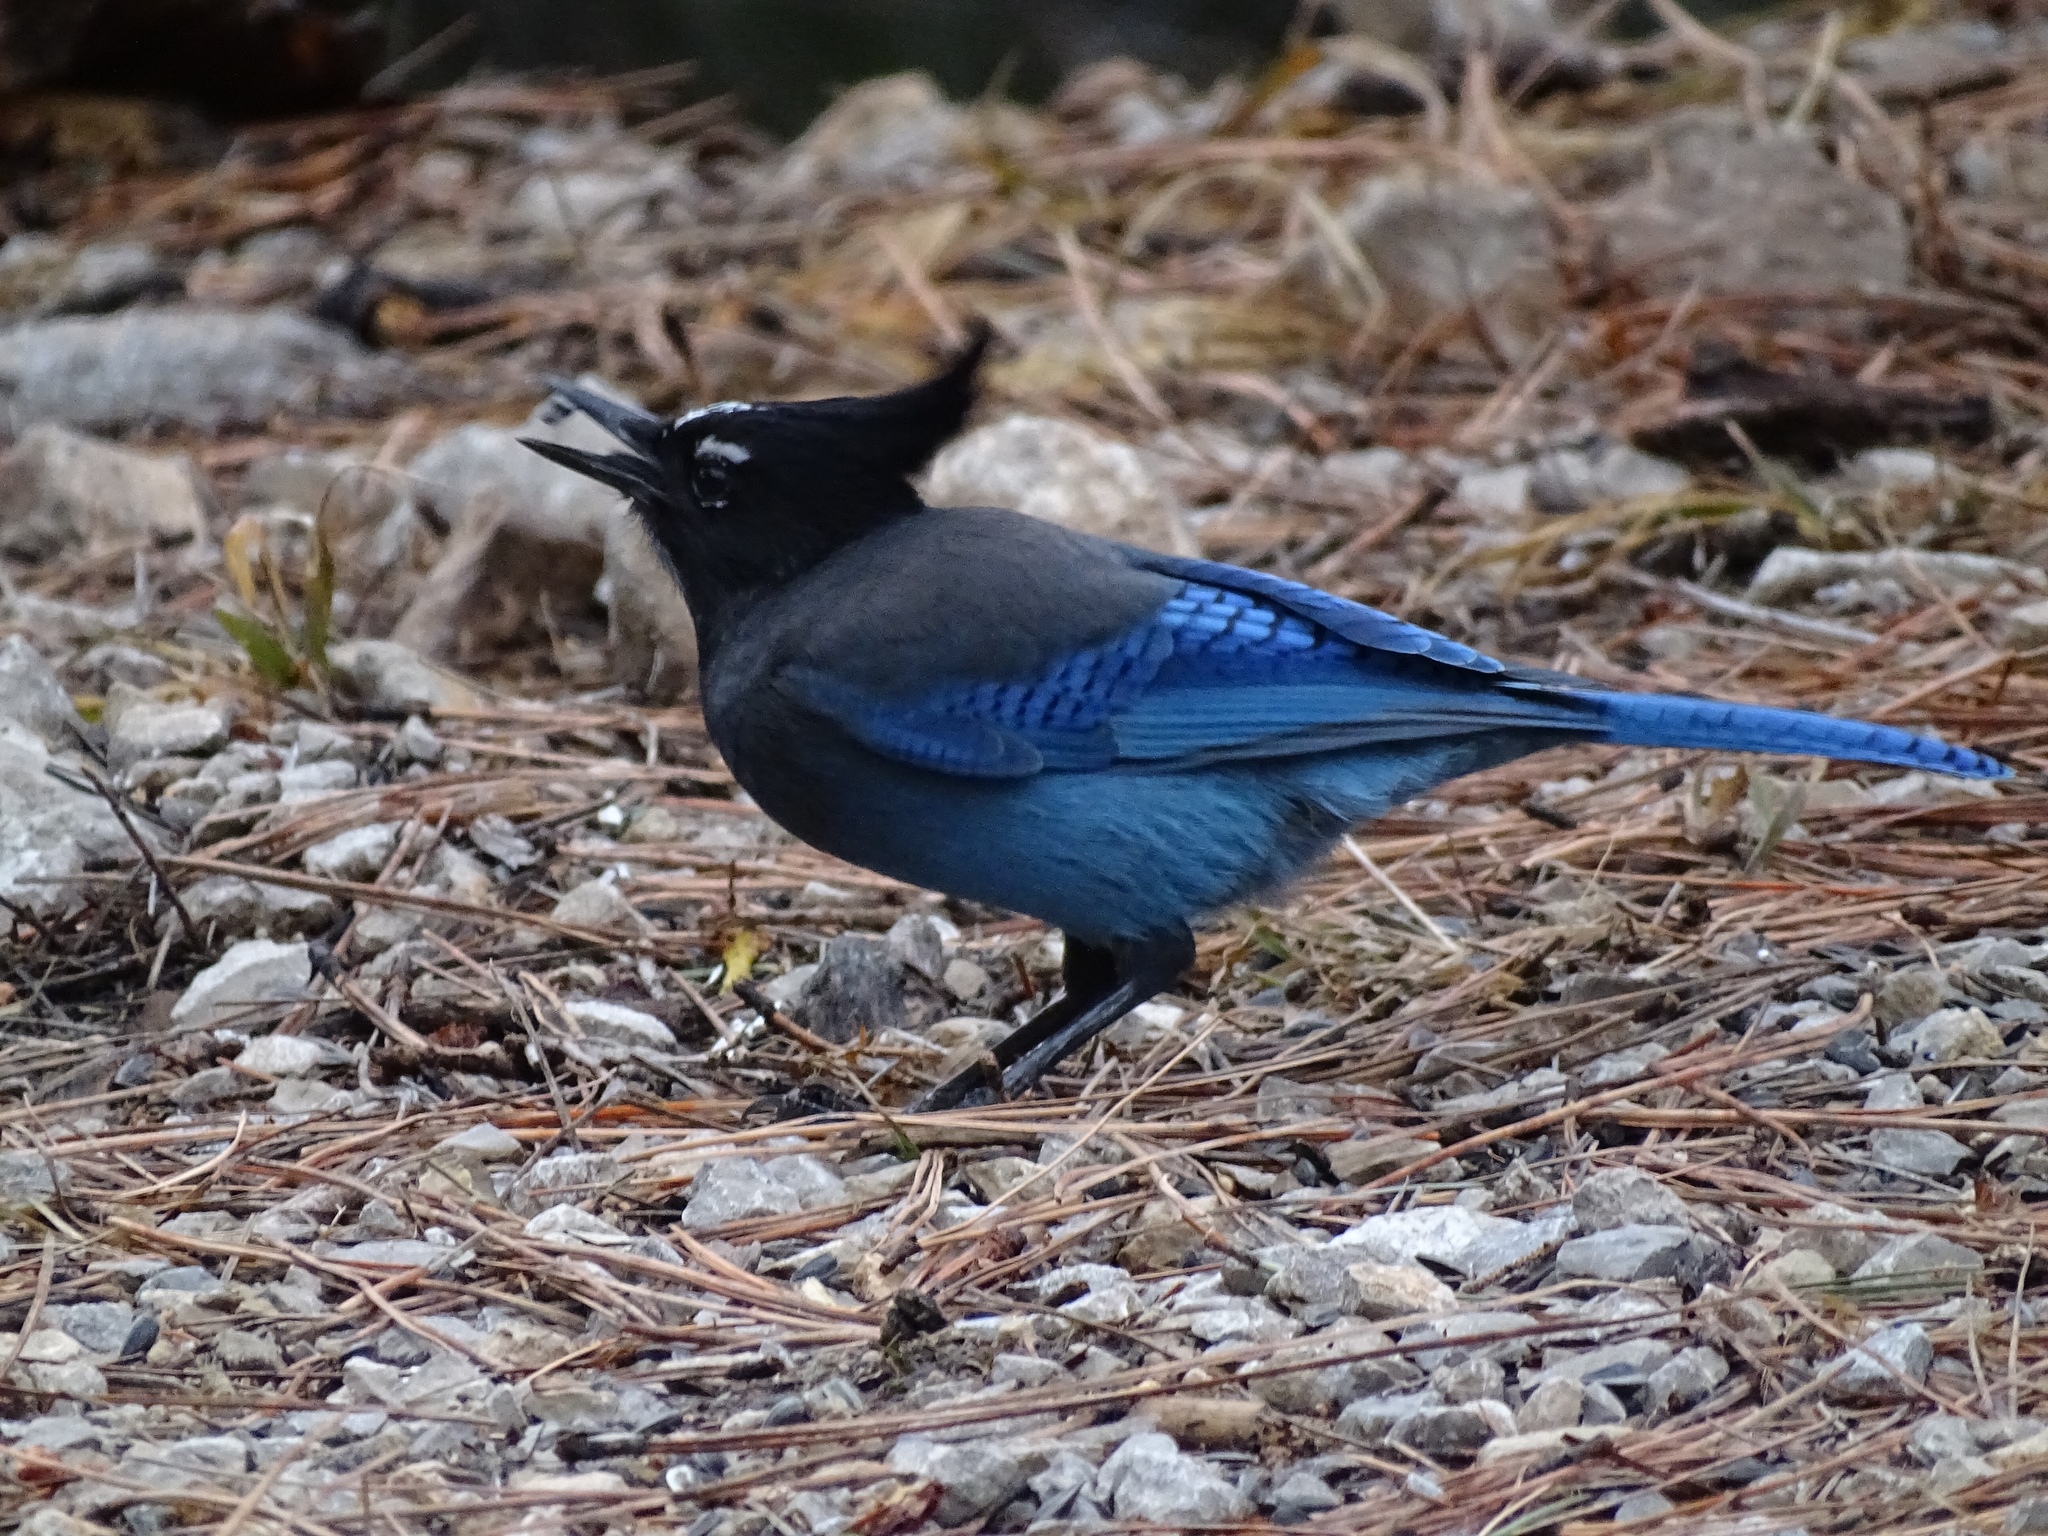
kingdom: Animalia
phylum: Chordata
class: Aves
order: Passeriformes
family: Corvidae
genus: Cyanocitta
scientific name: Cyanocitta stelleri
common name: Steller's jay
